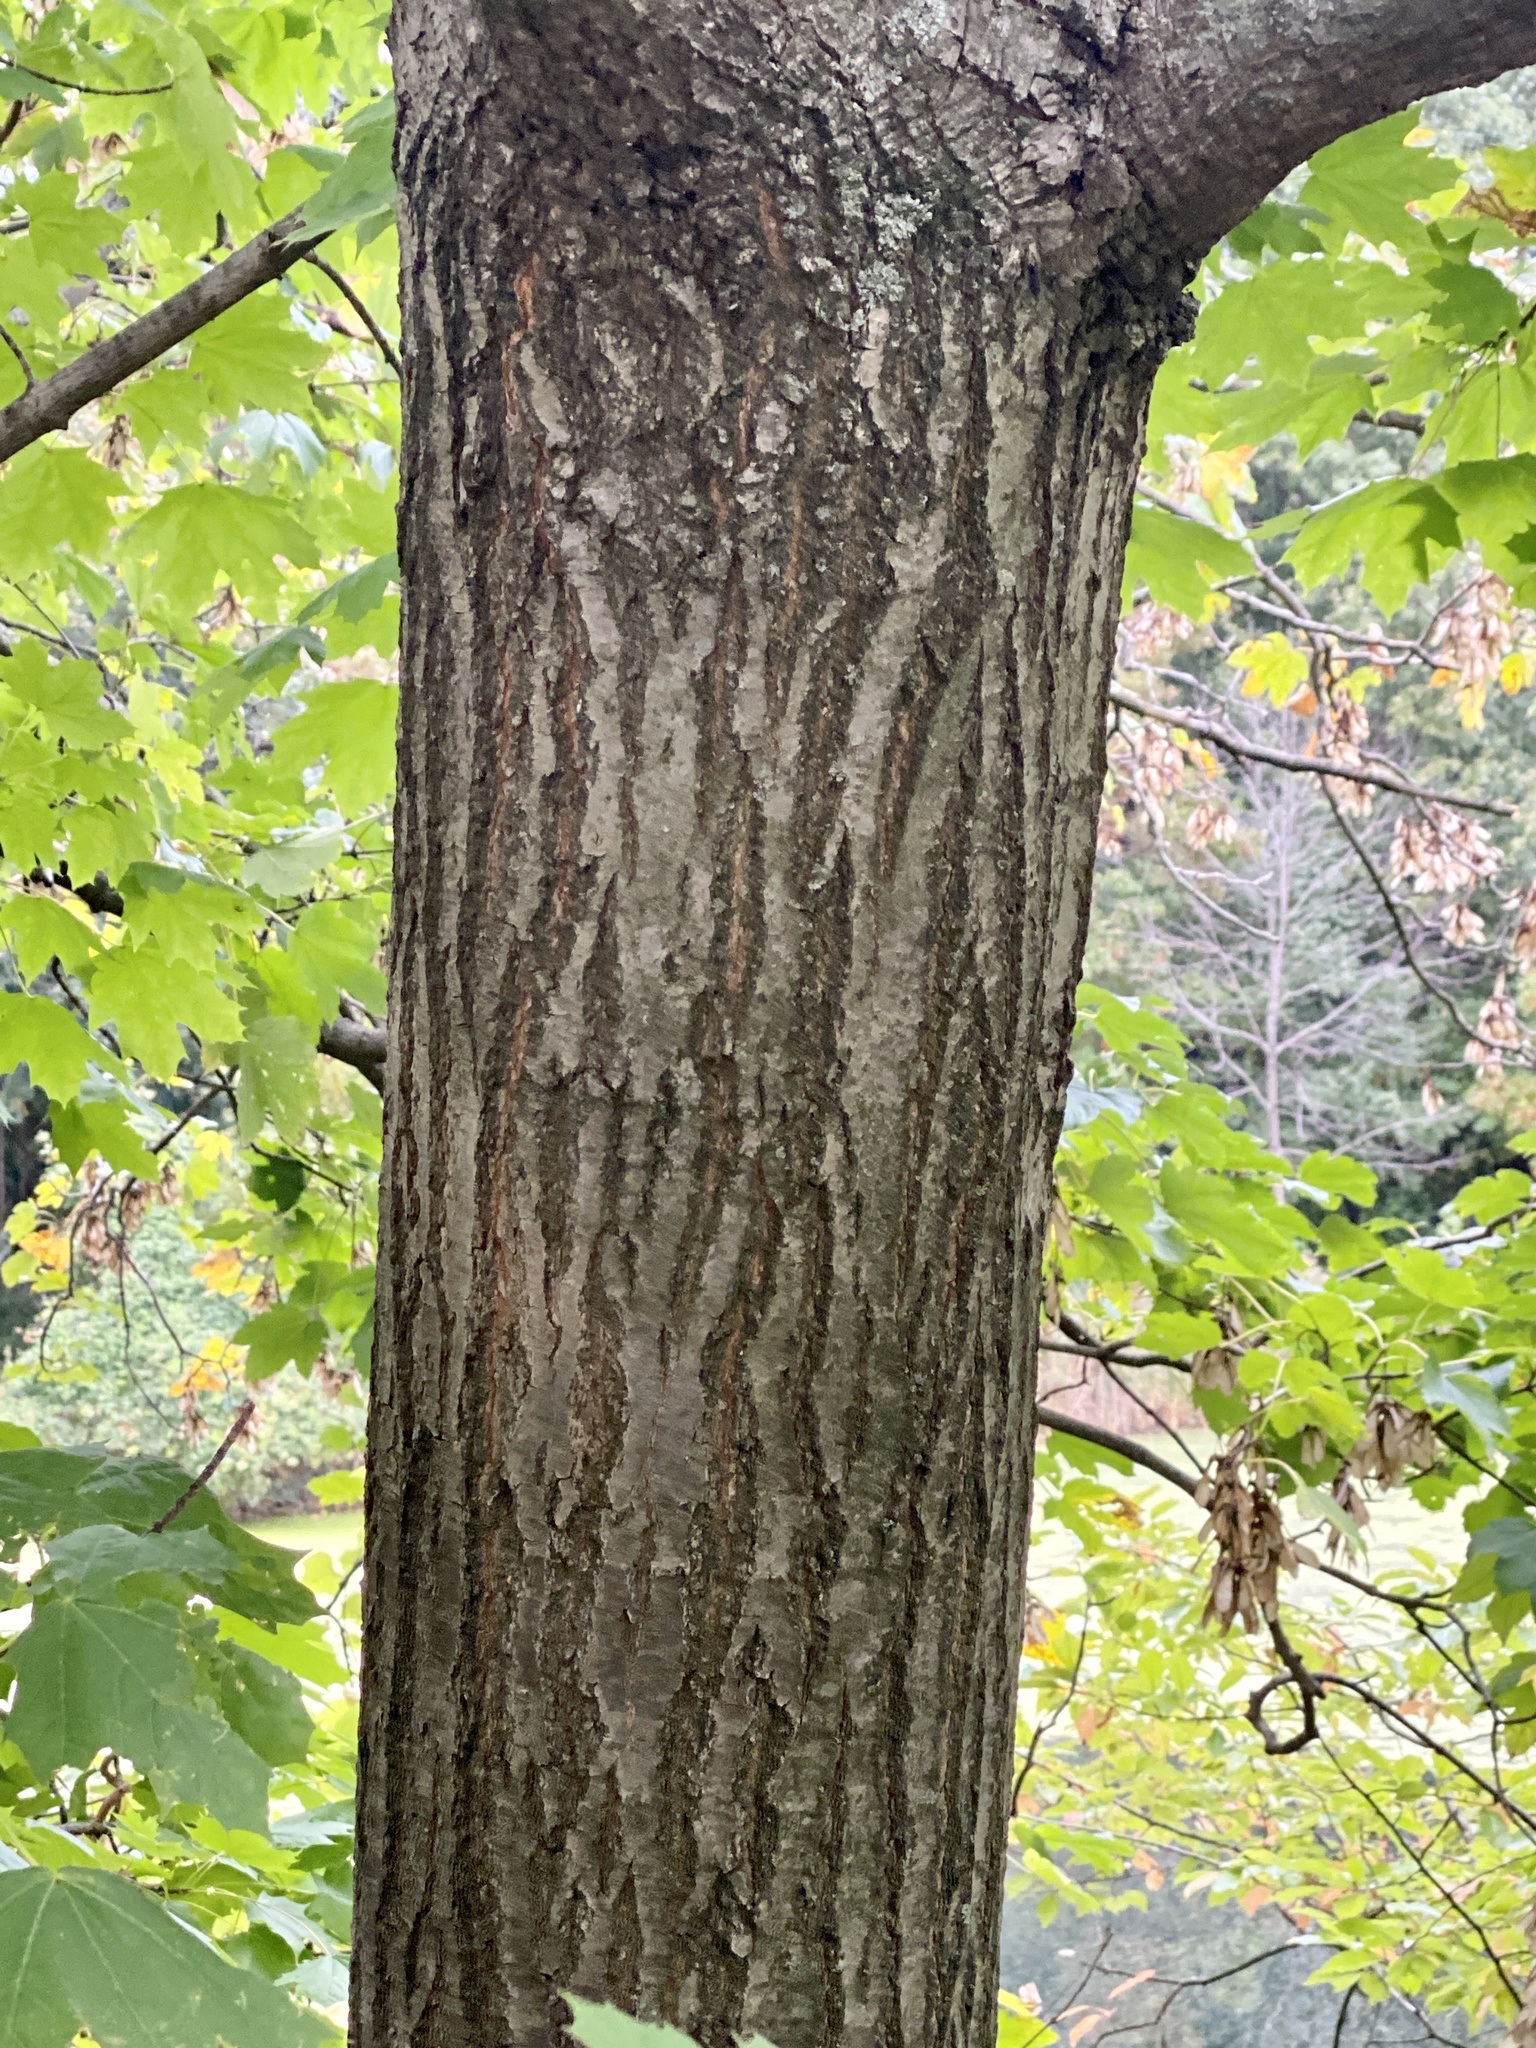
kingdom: Plantae
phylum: Tracheophyta
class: Magnoliopsida
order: Fagales
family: Fagaceae
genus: Quercus
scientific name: Quercus rubra
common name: Red oak
